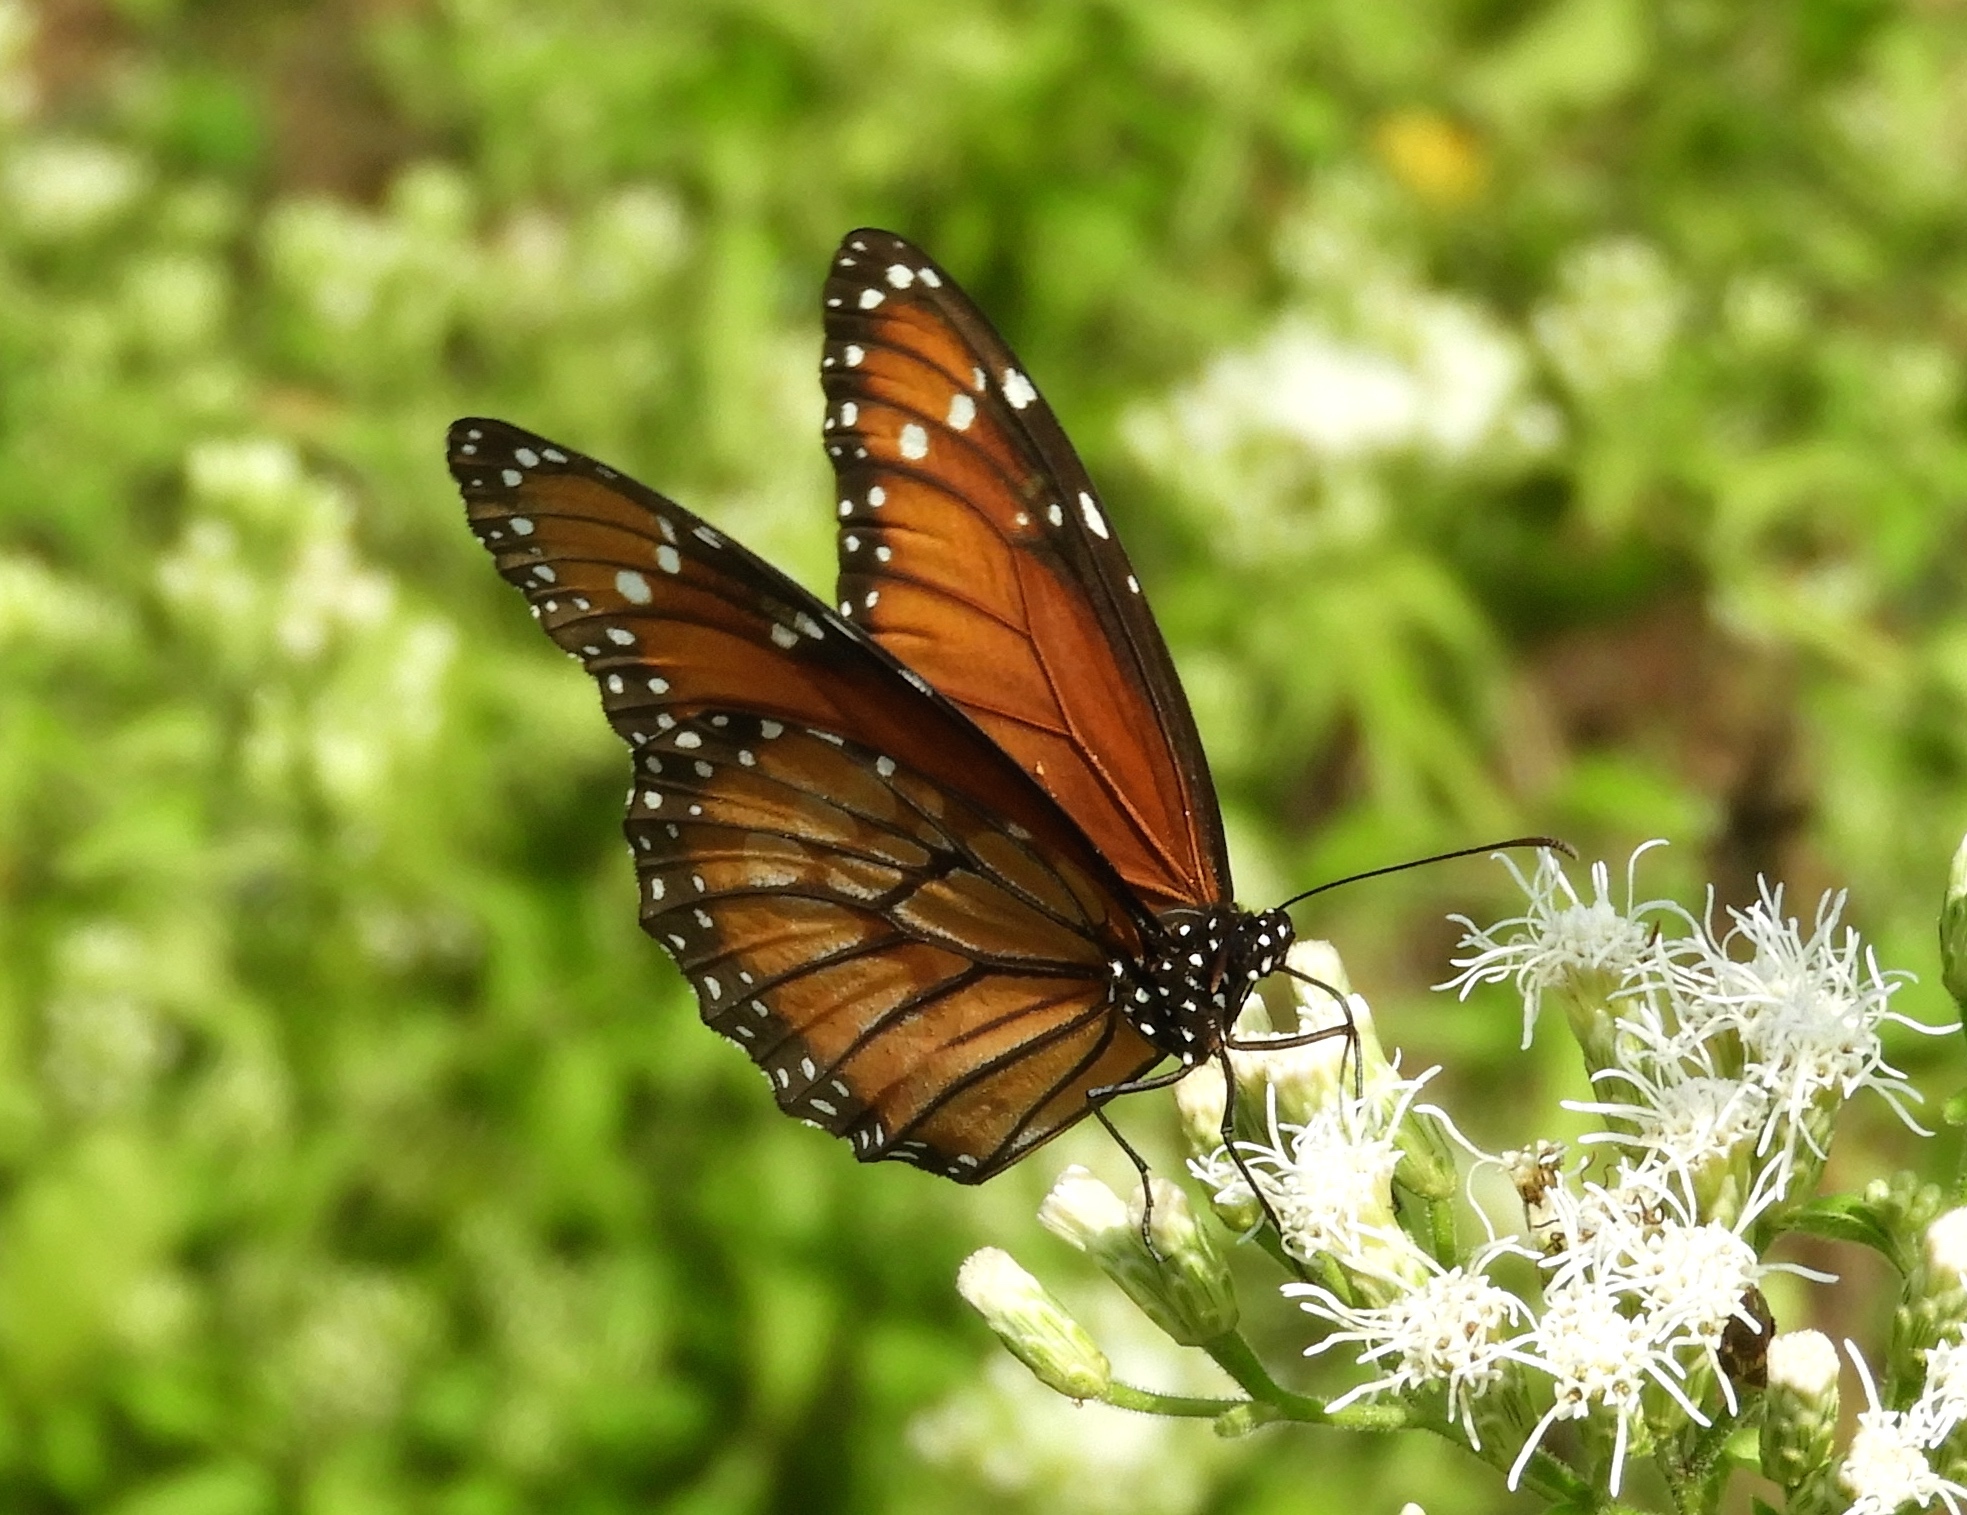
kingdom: Animalia
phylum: Arthropoda
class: Insecta
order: Lepidoptera
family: Nymphalidae
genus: Danaus
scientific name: Danaus eresimus
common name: Soldier
